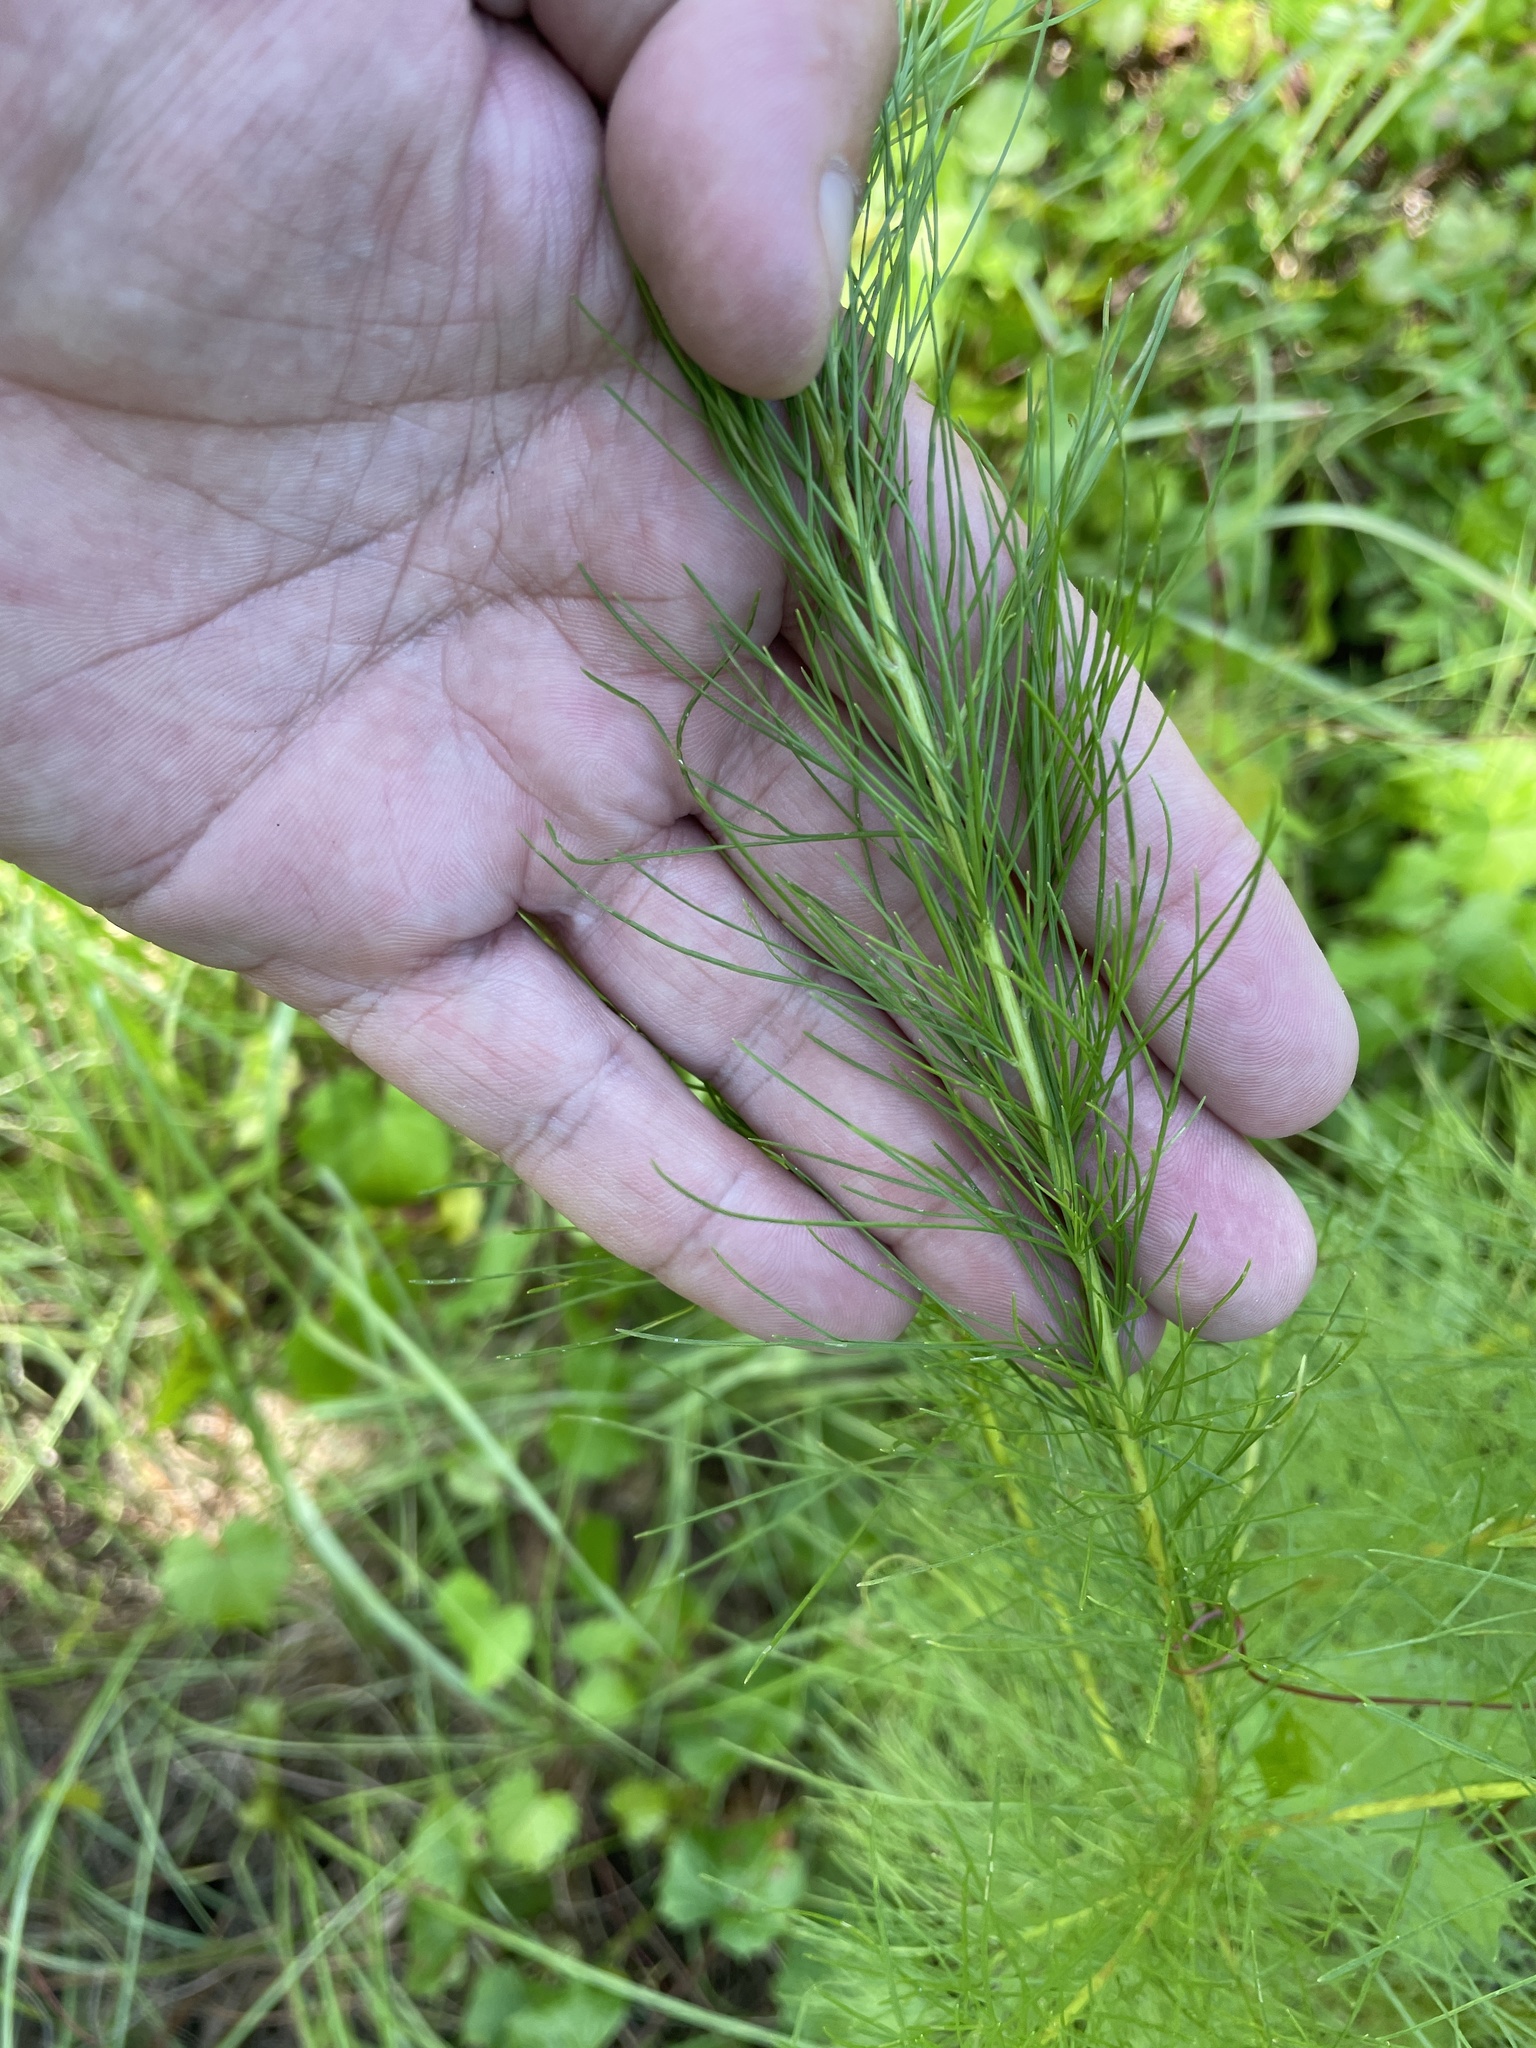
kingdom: Plantae
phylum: Tracheophyta
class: Magnoliopsida
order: Asterales
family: Asteraceae
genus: Eupatorium
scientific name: Eupatorium capillifolium
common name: Dog-fennel
